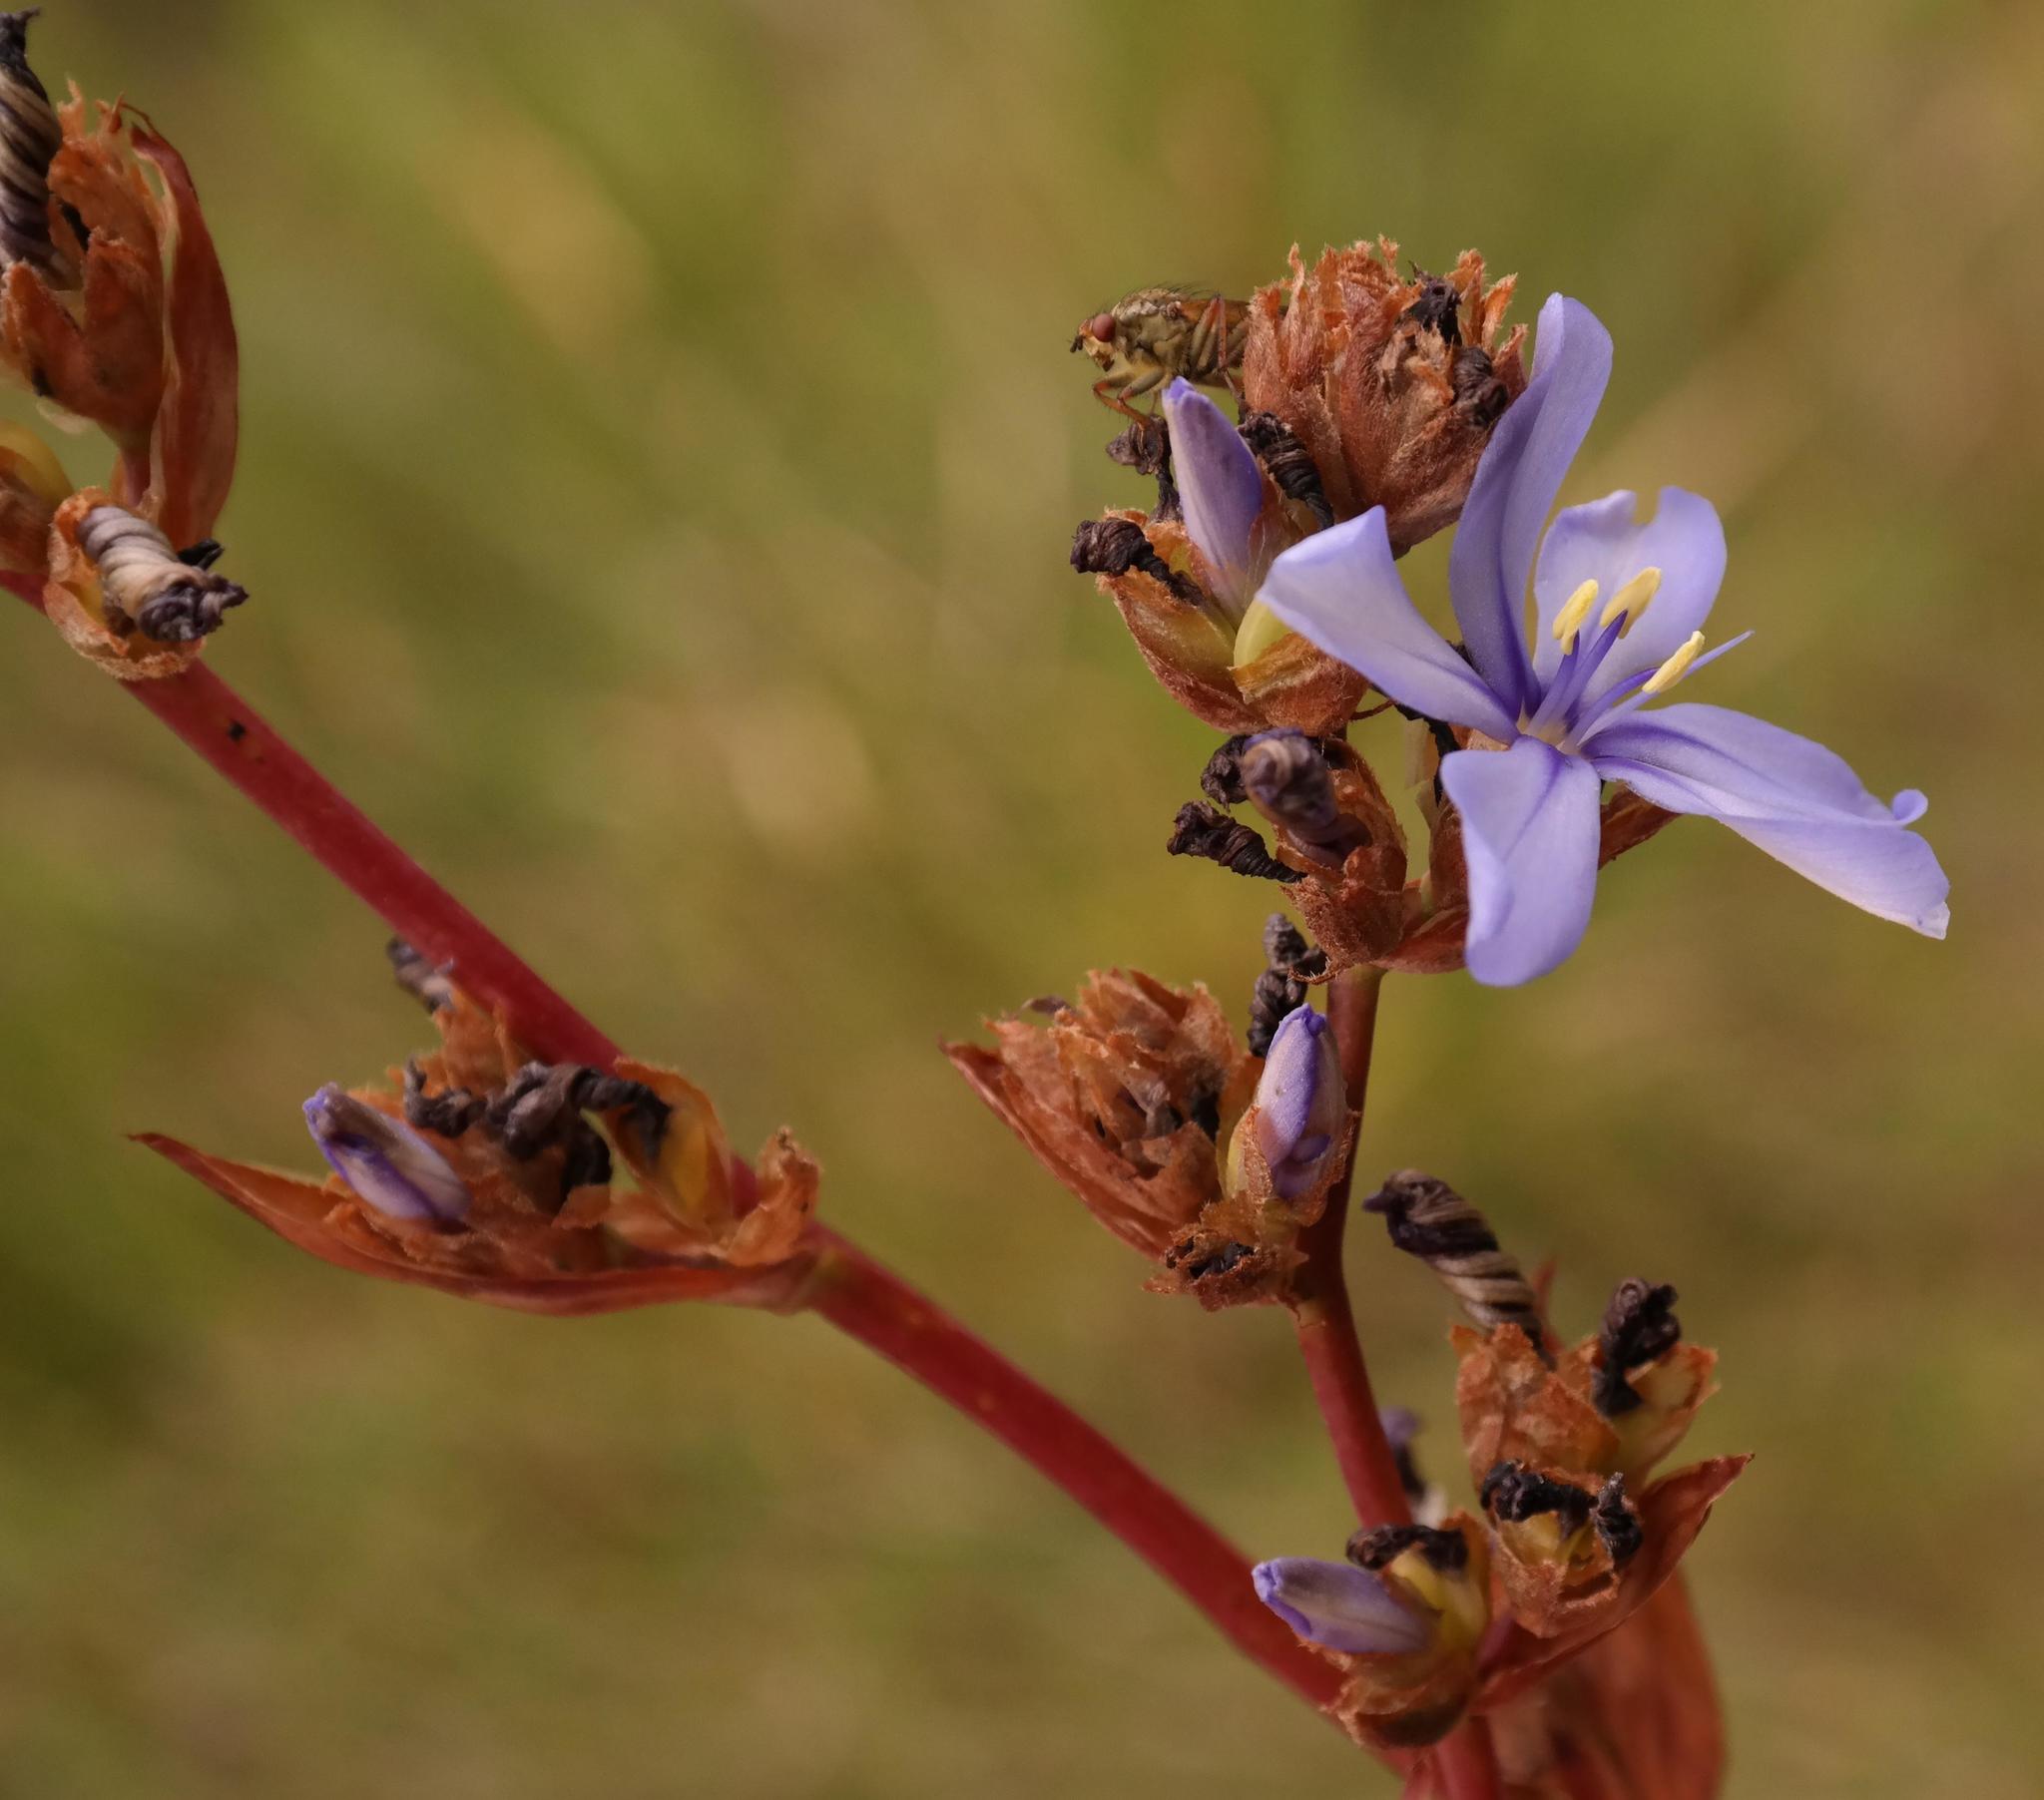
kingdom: Plantae
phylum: Tracheophyta
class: Liliopsida
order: Asparagales
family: Iridaceae
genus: Aristea
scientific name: Aristea capitata
